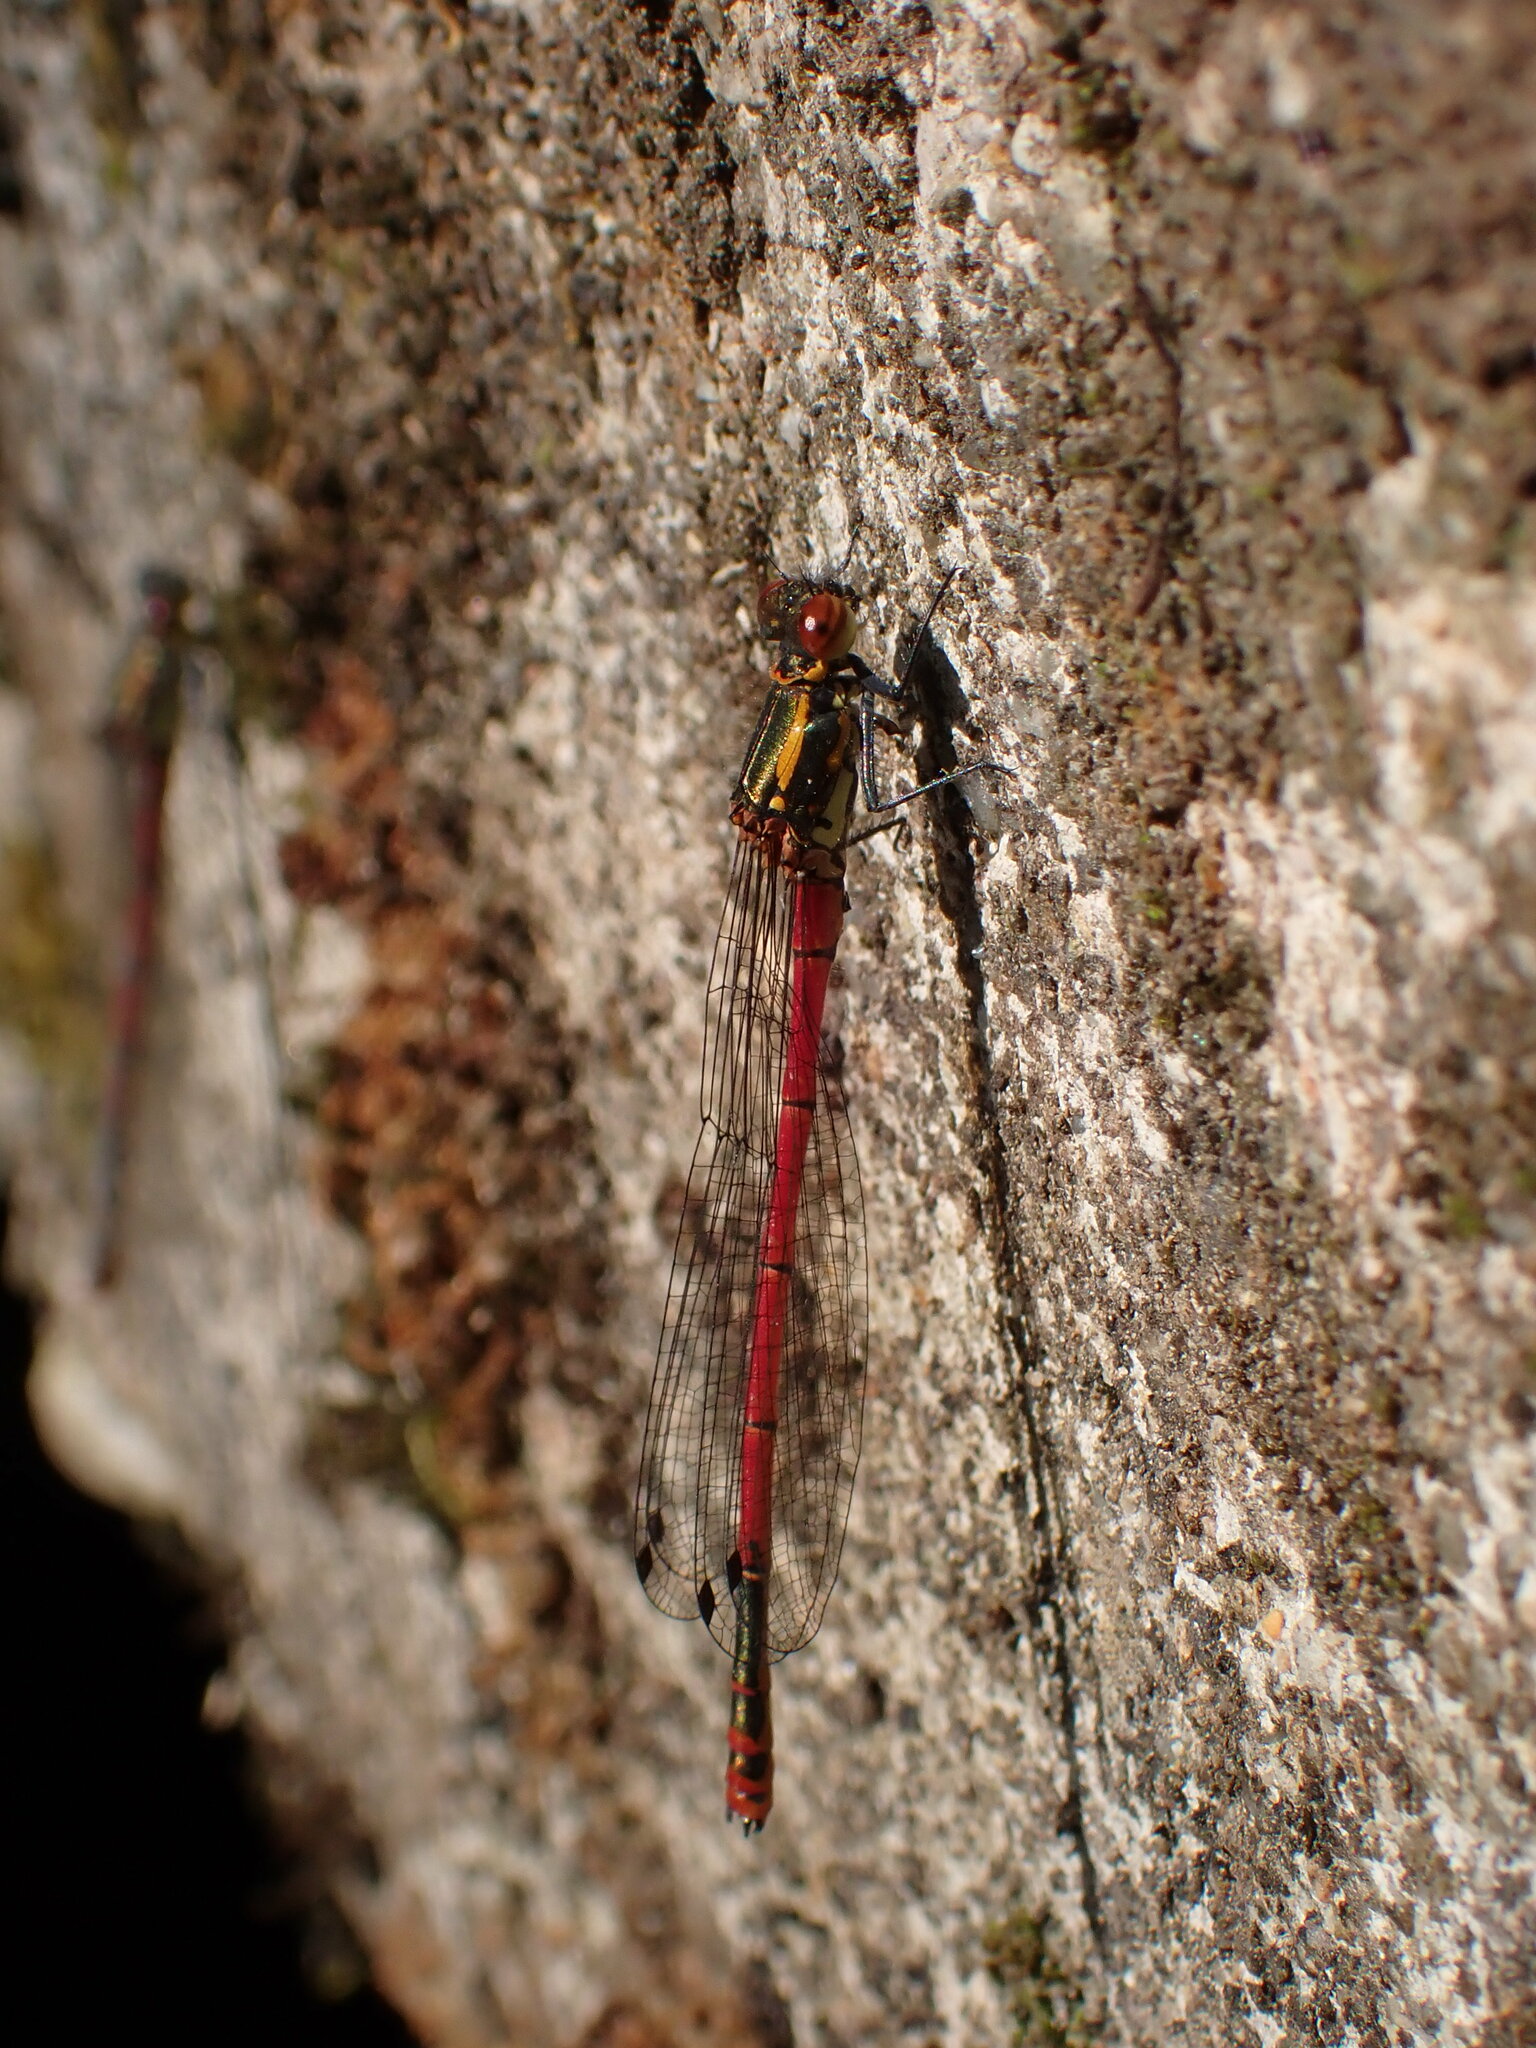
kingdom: Animalia
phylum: Arthropoda
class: Insecta
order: Odonata
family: Coenagrionidae
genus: Pyrrhosoma
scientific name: Pyrrhosoma nymphula
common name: Large red damsel
